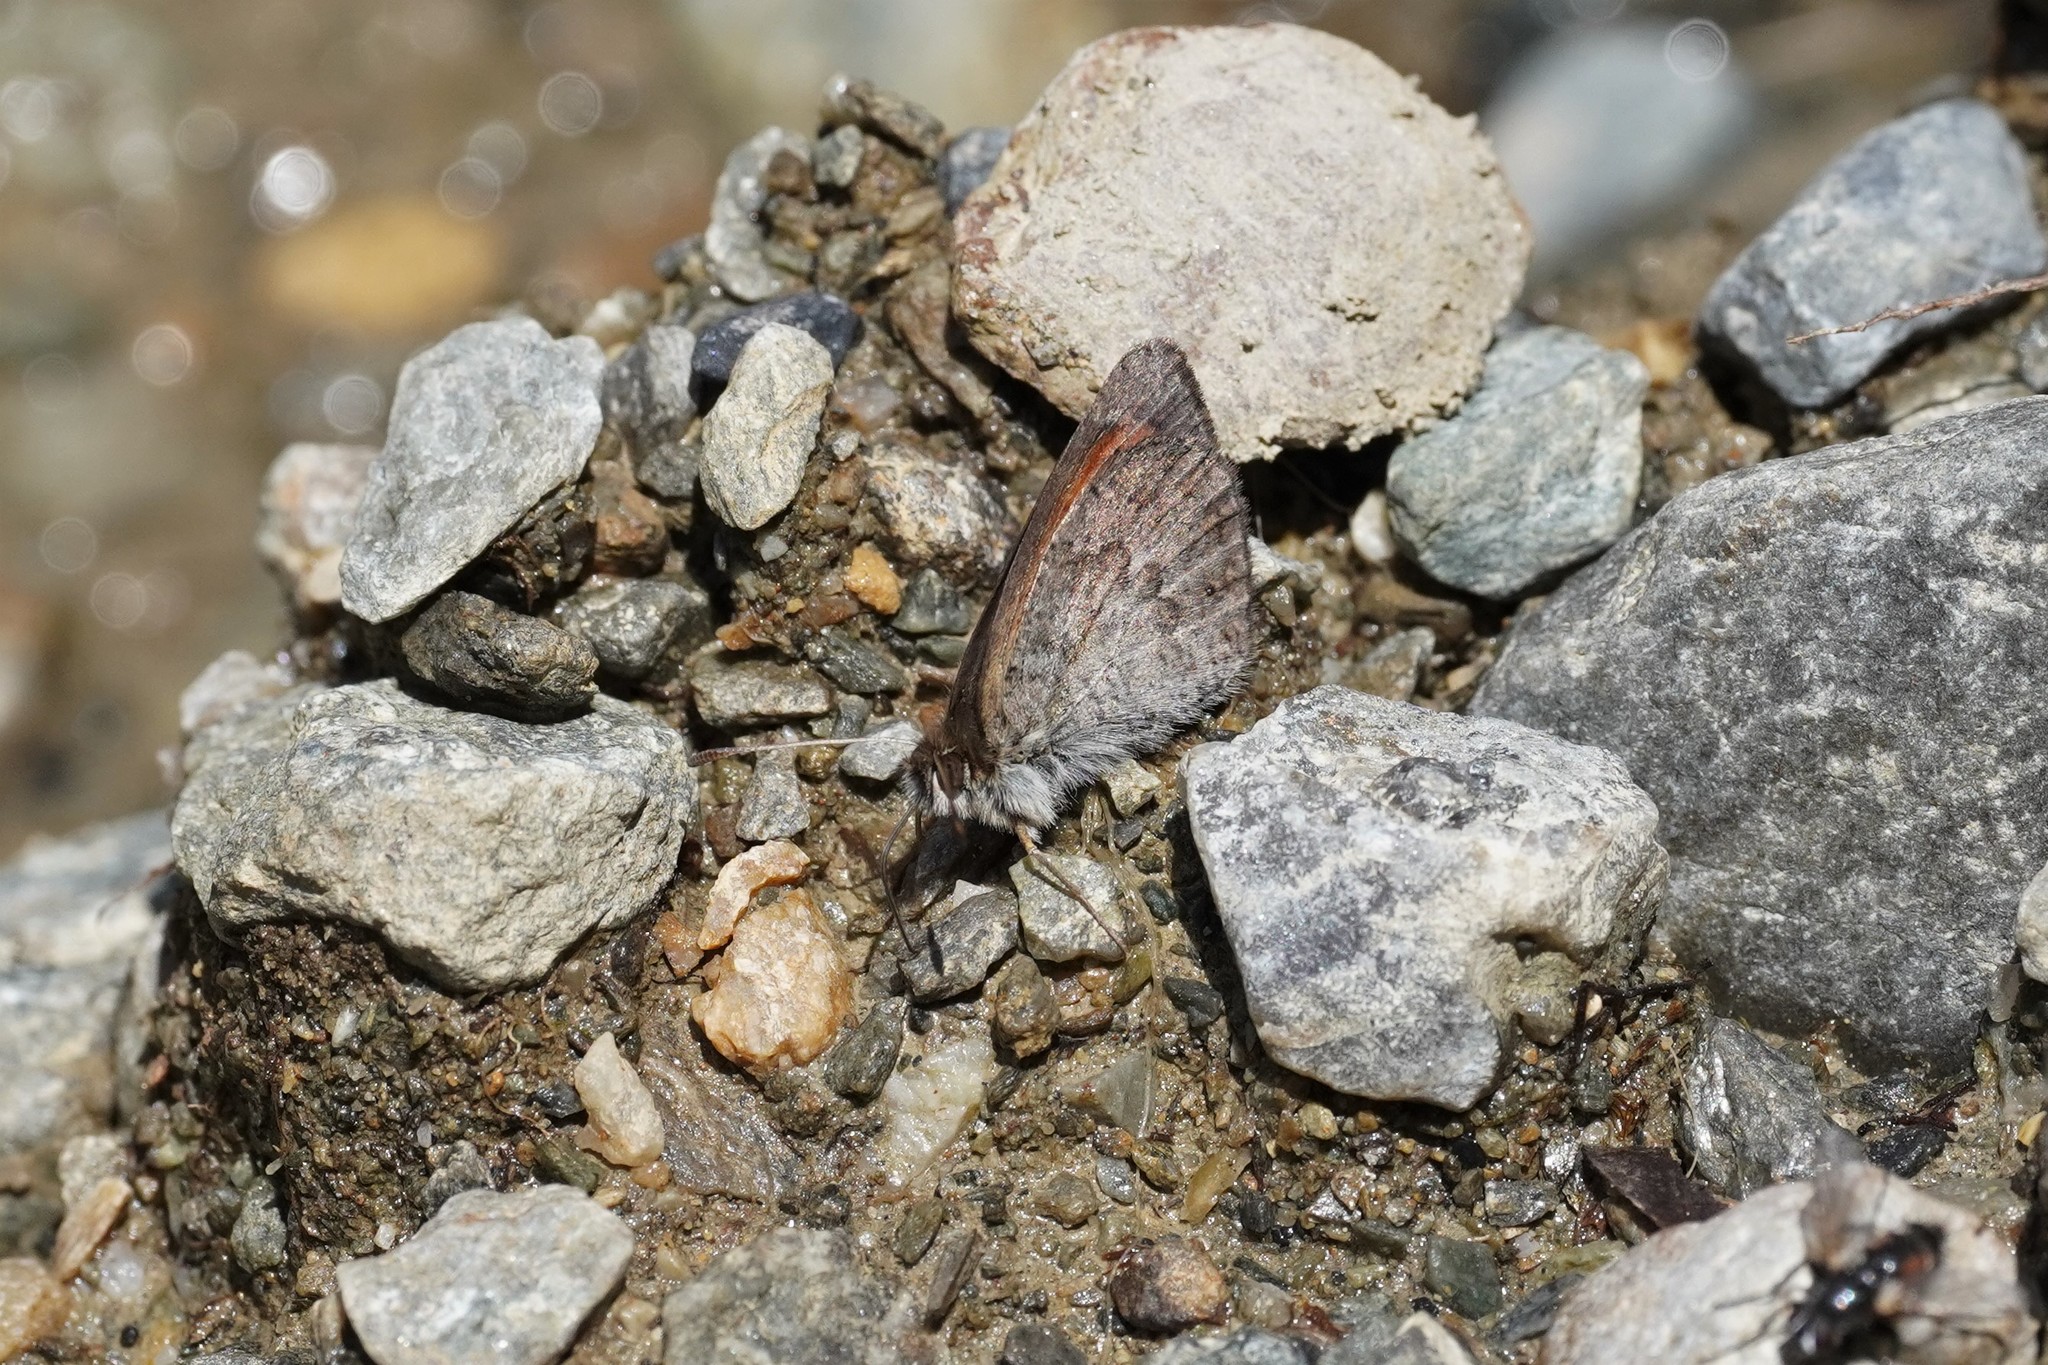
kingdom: Animalia
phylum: Arthropoda
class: Insecta
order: Lepidoptera
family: Nymphalidae
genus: Erebia
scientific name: Erebia cassioides
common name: Common brassy ringlet
